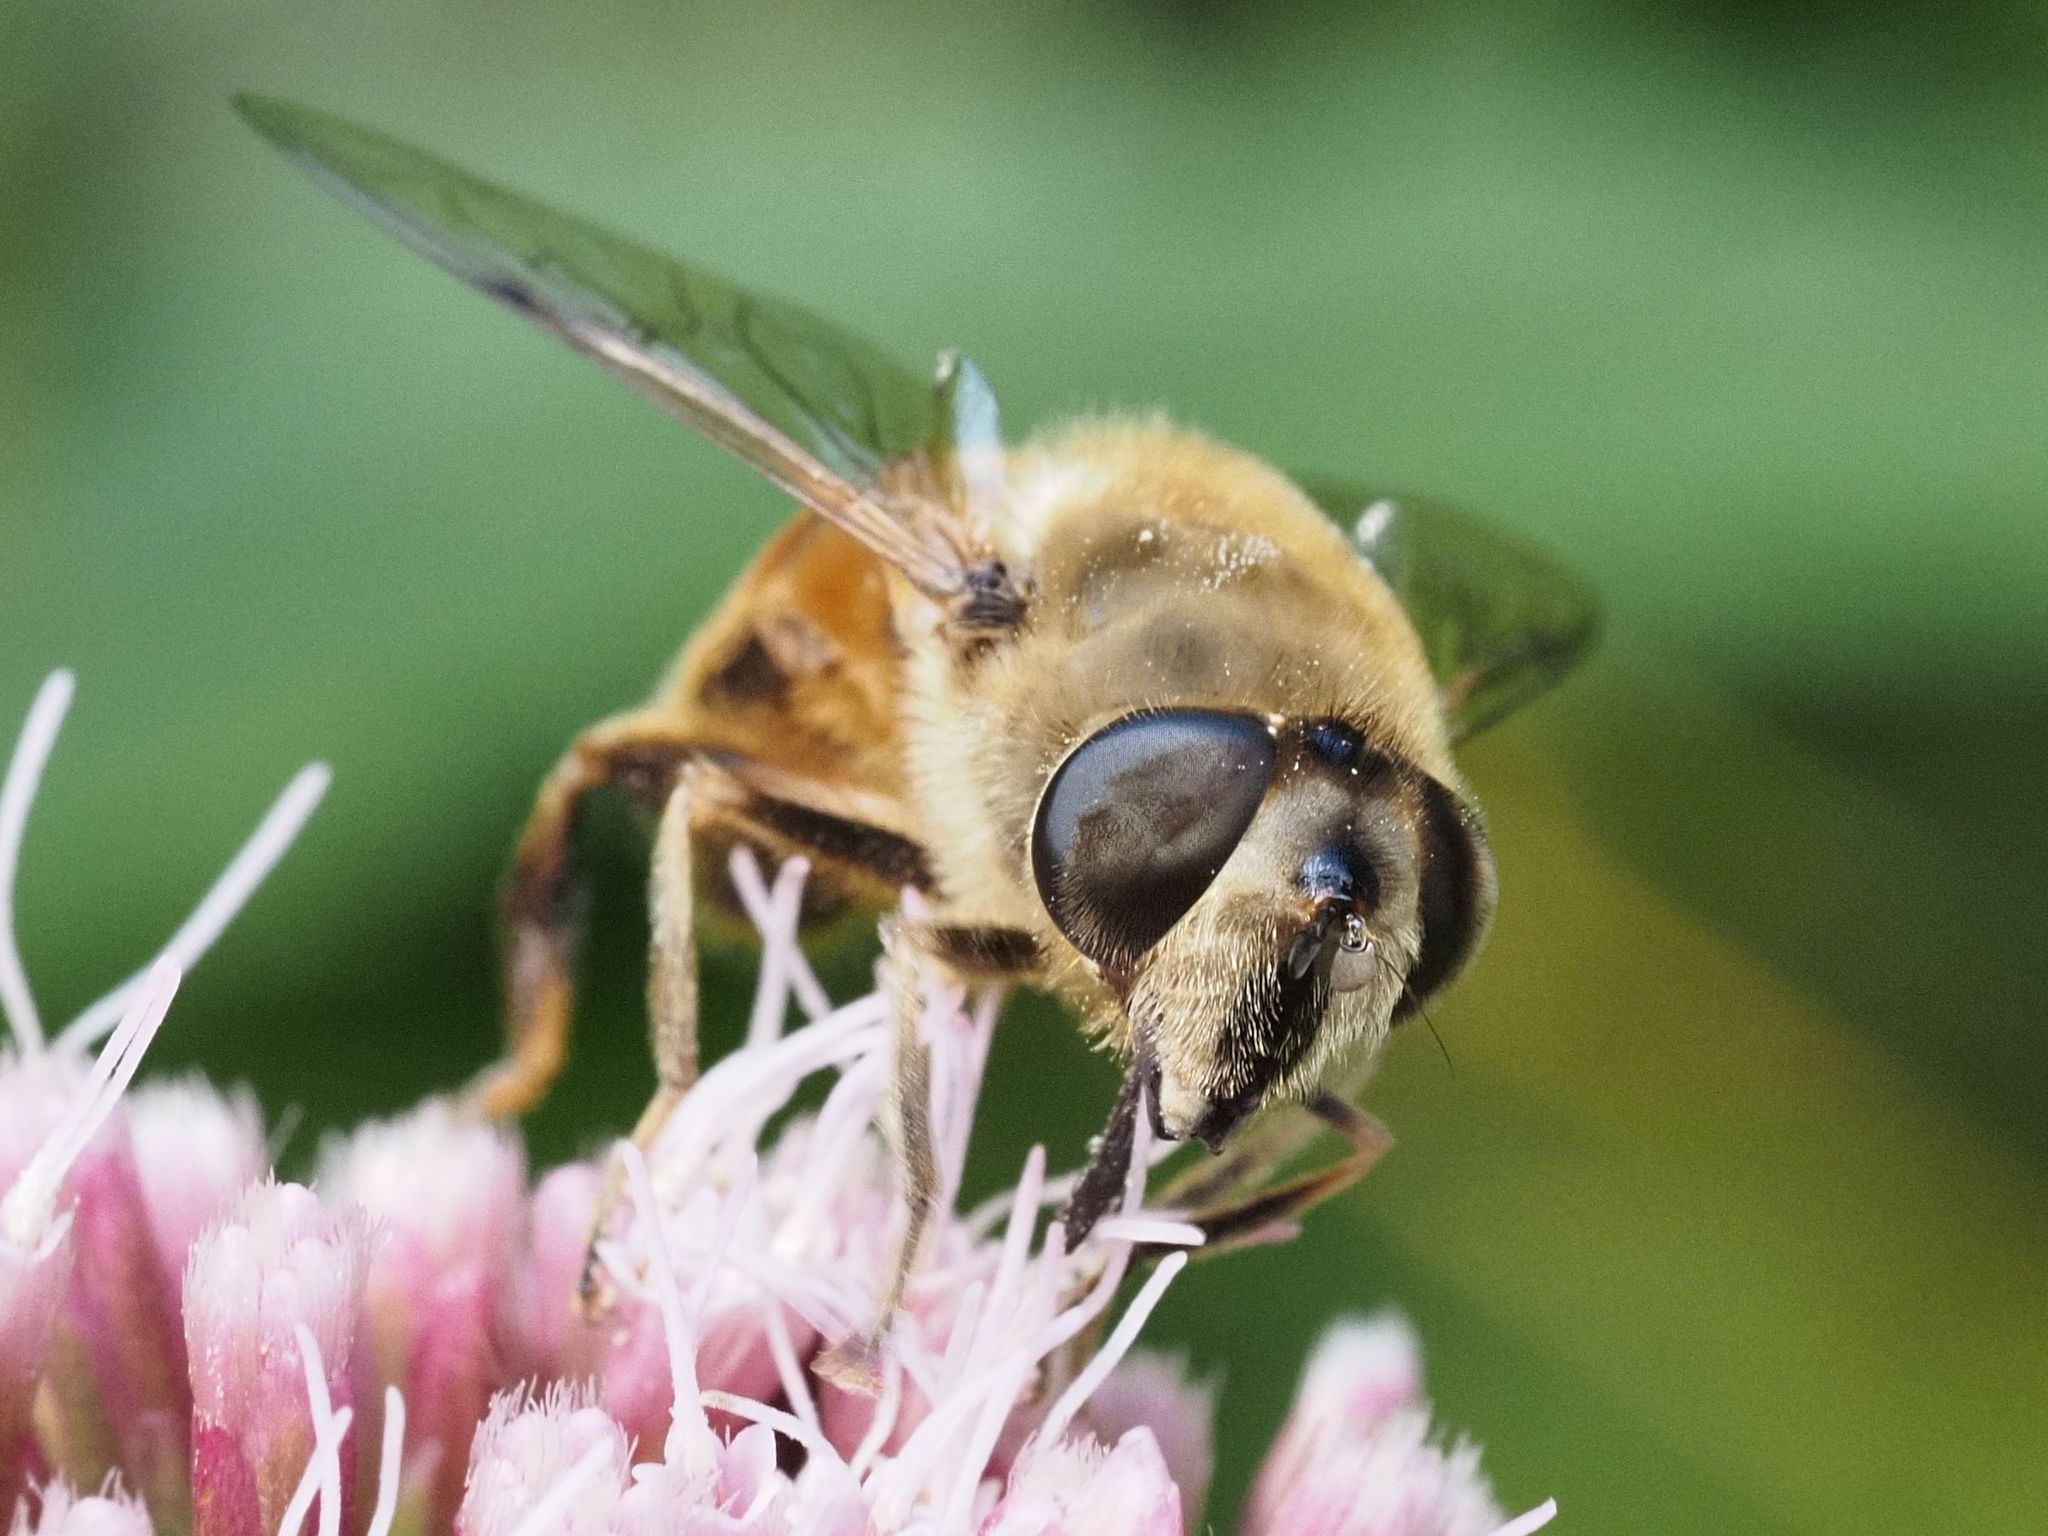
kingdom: Animalia
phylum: Arthropoda
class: Insecta
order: Diptera
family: Syrphidae
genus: Eristalis
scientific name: Eristalis tenax
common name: Drone fly
